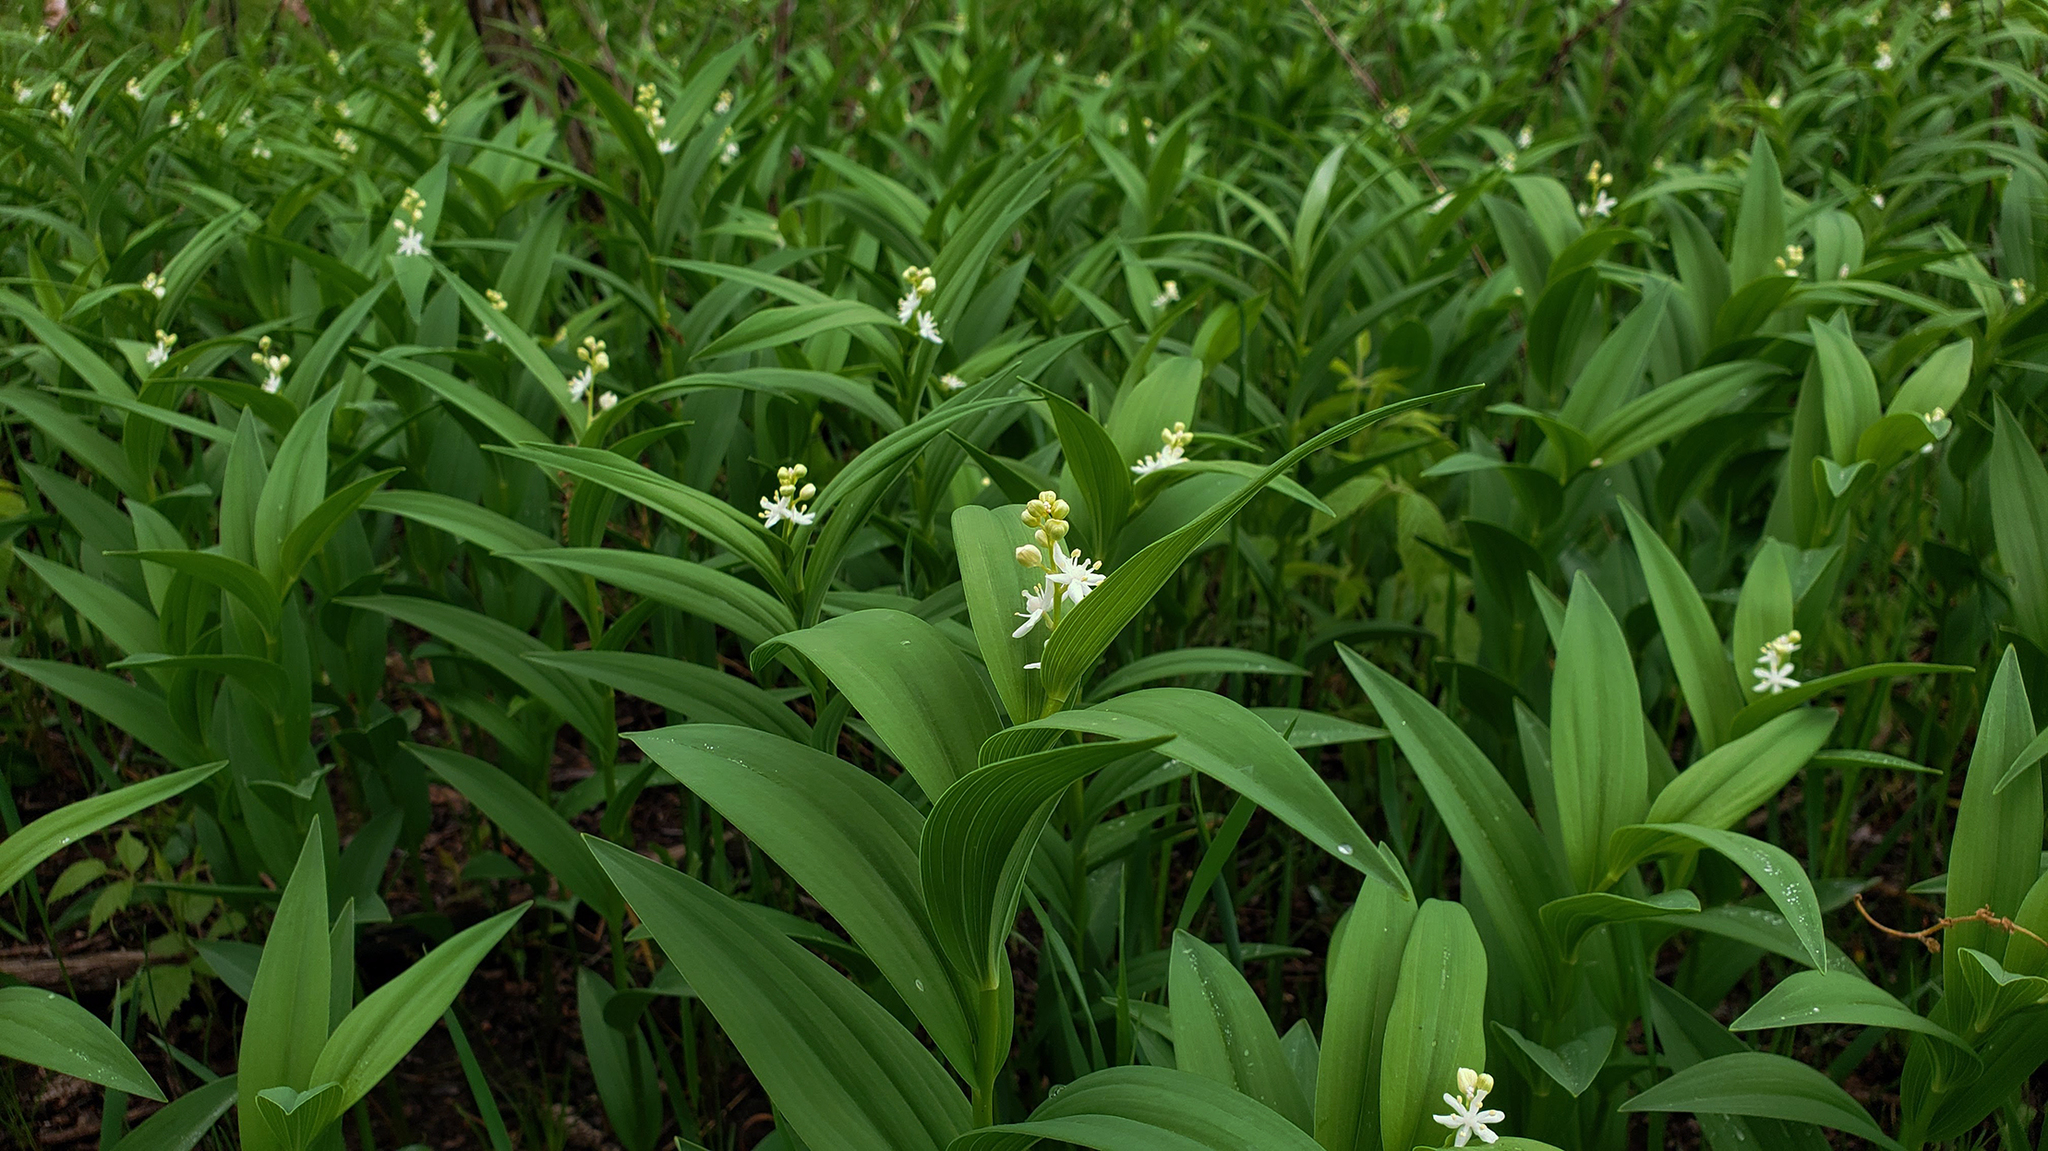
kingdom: Plantae
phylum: Tracheophyta
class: Liliopsida
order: Asparagales
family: Asparagaceae
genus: Maianthemum
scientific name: Maianthemum stellatum
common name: Little false solomon's seal
